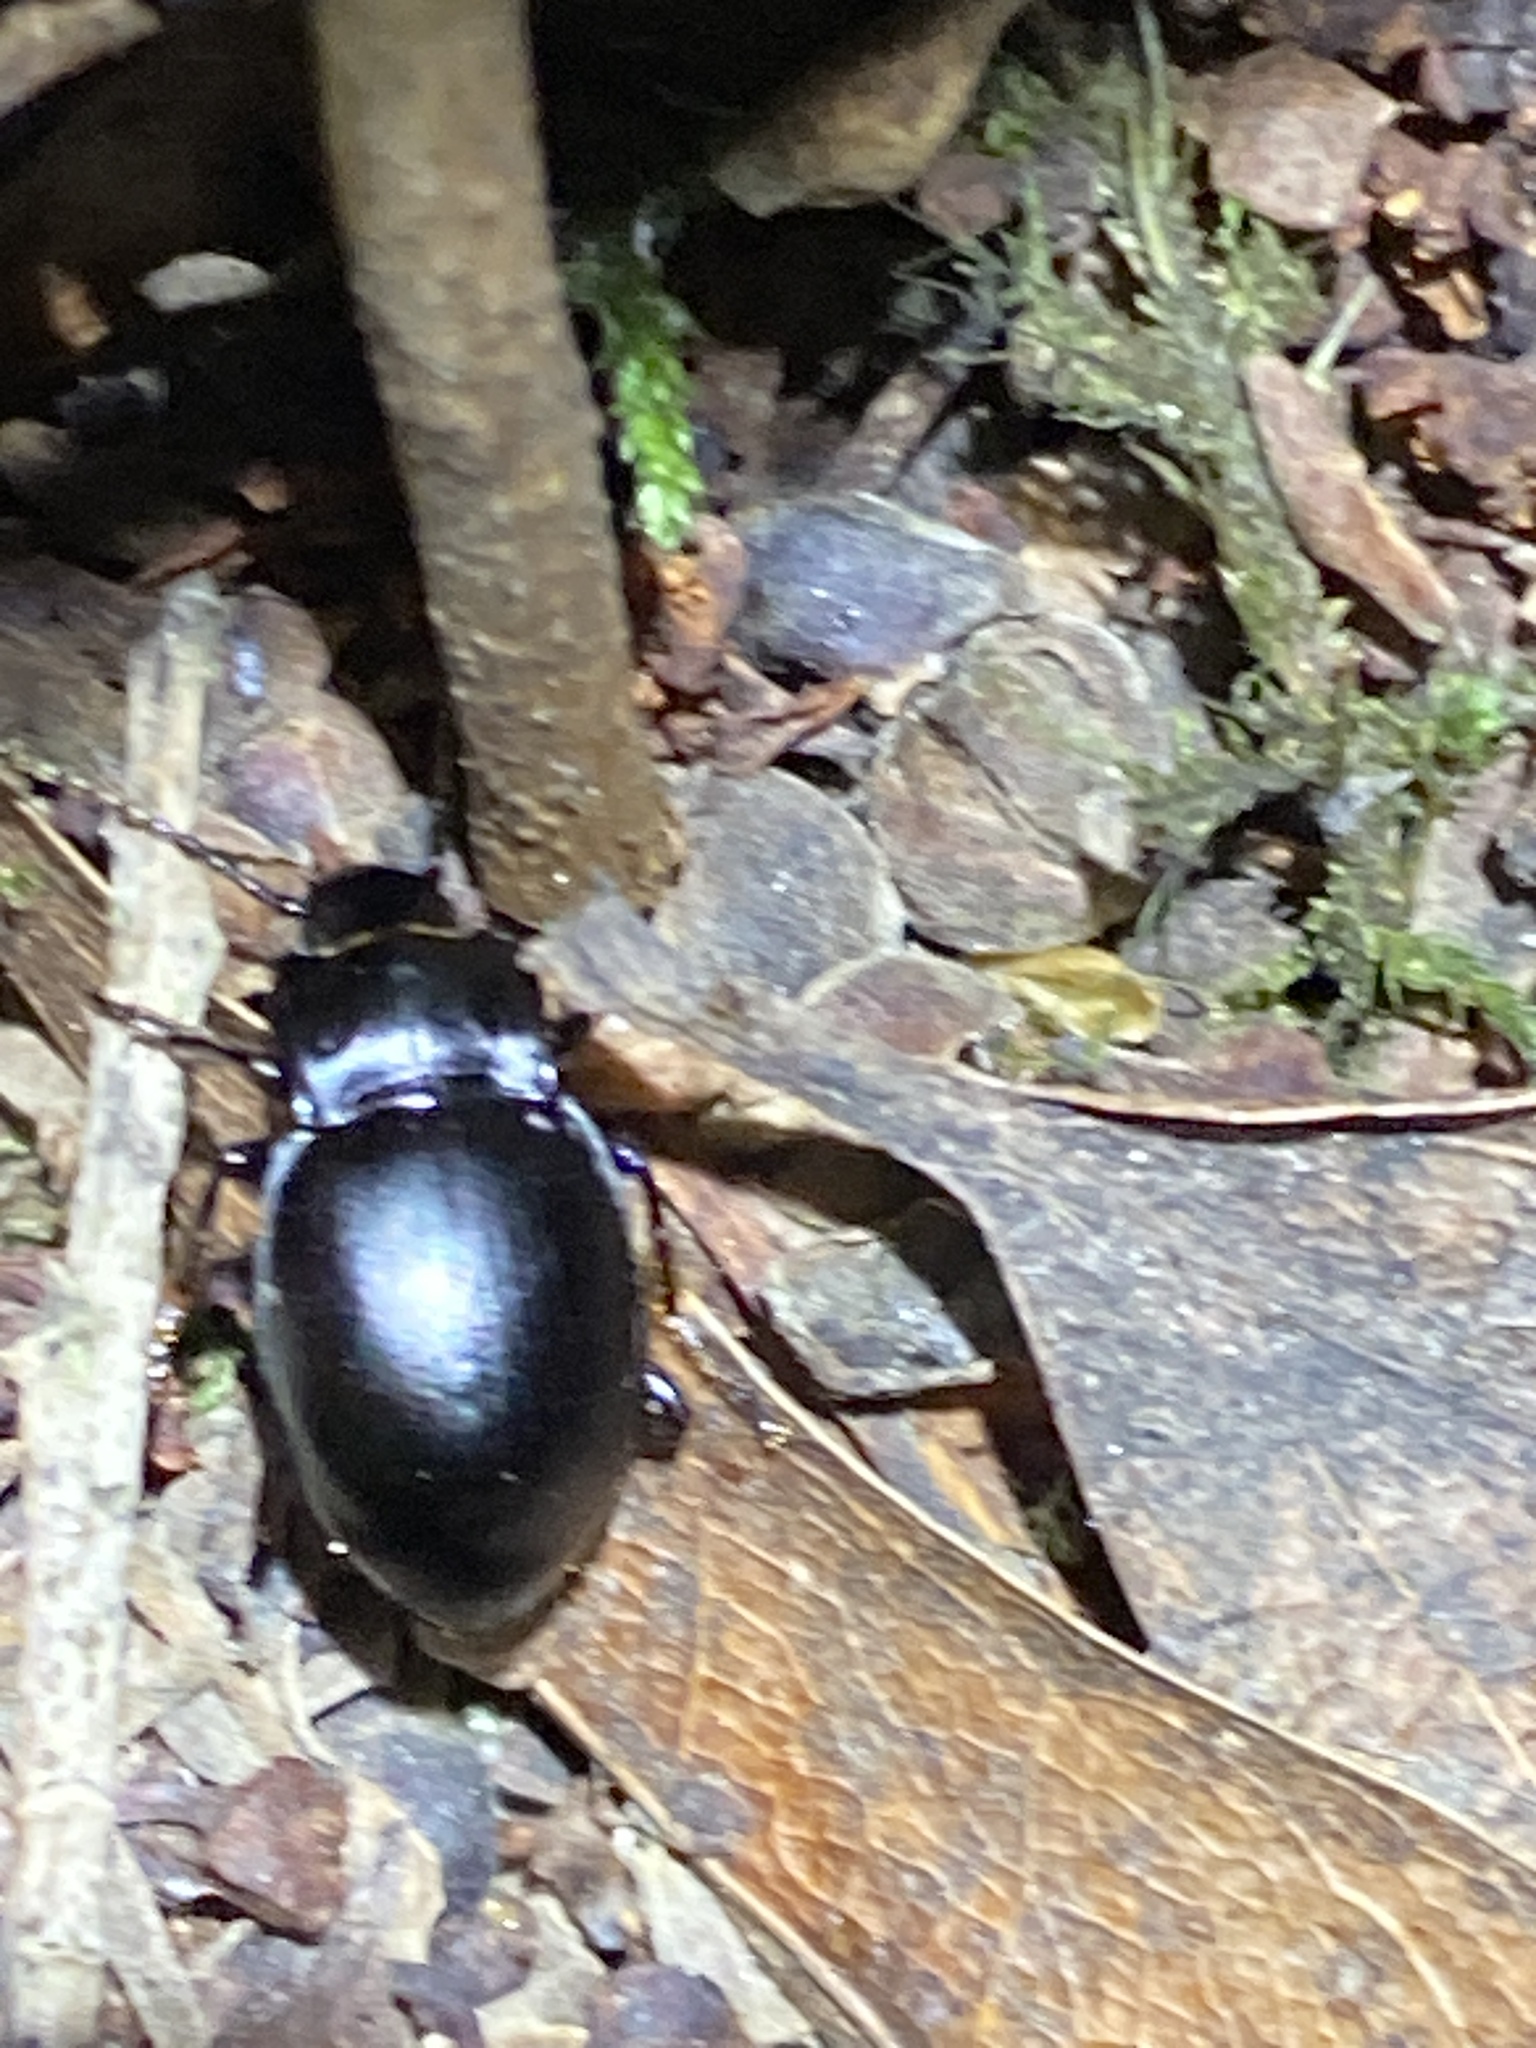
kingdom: Animalia
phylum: Arthropoda
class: Insecta
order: Coleoptera
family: Carabidae
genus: Metrius
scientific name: Metrius contractus
